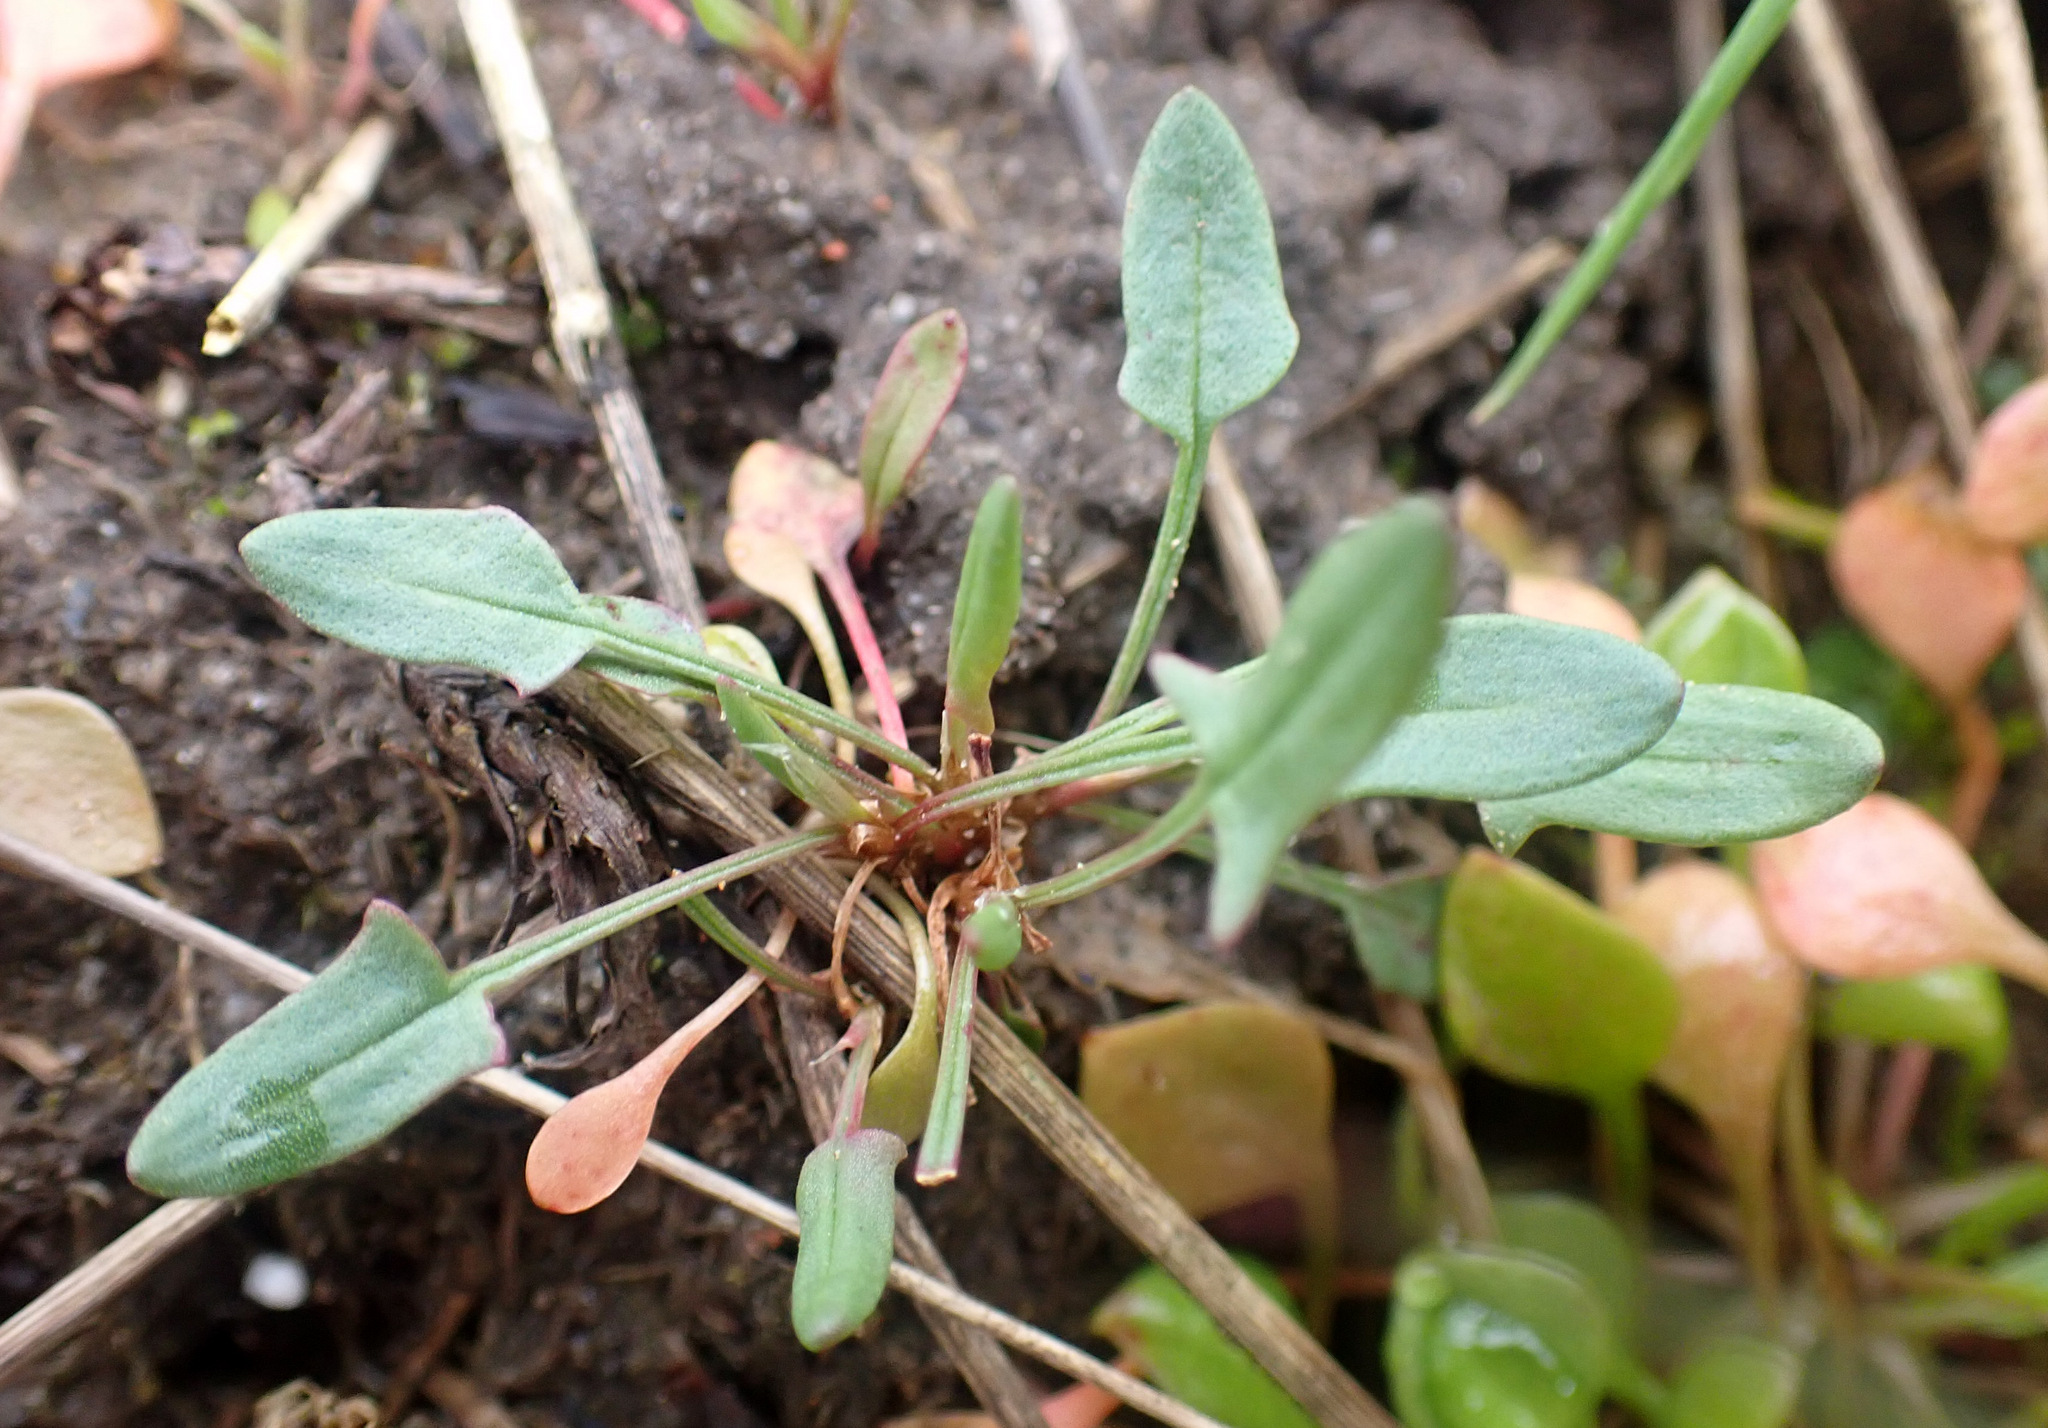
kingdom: Plantae
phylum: Tracheophyta
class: Magnoliopsida
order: Caryophyllales
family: Polygonaceae
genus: Rumex
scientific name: Rumex acetosella
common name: Common sheep sorrel
